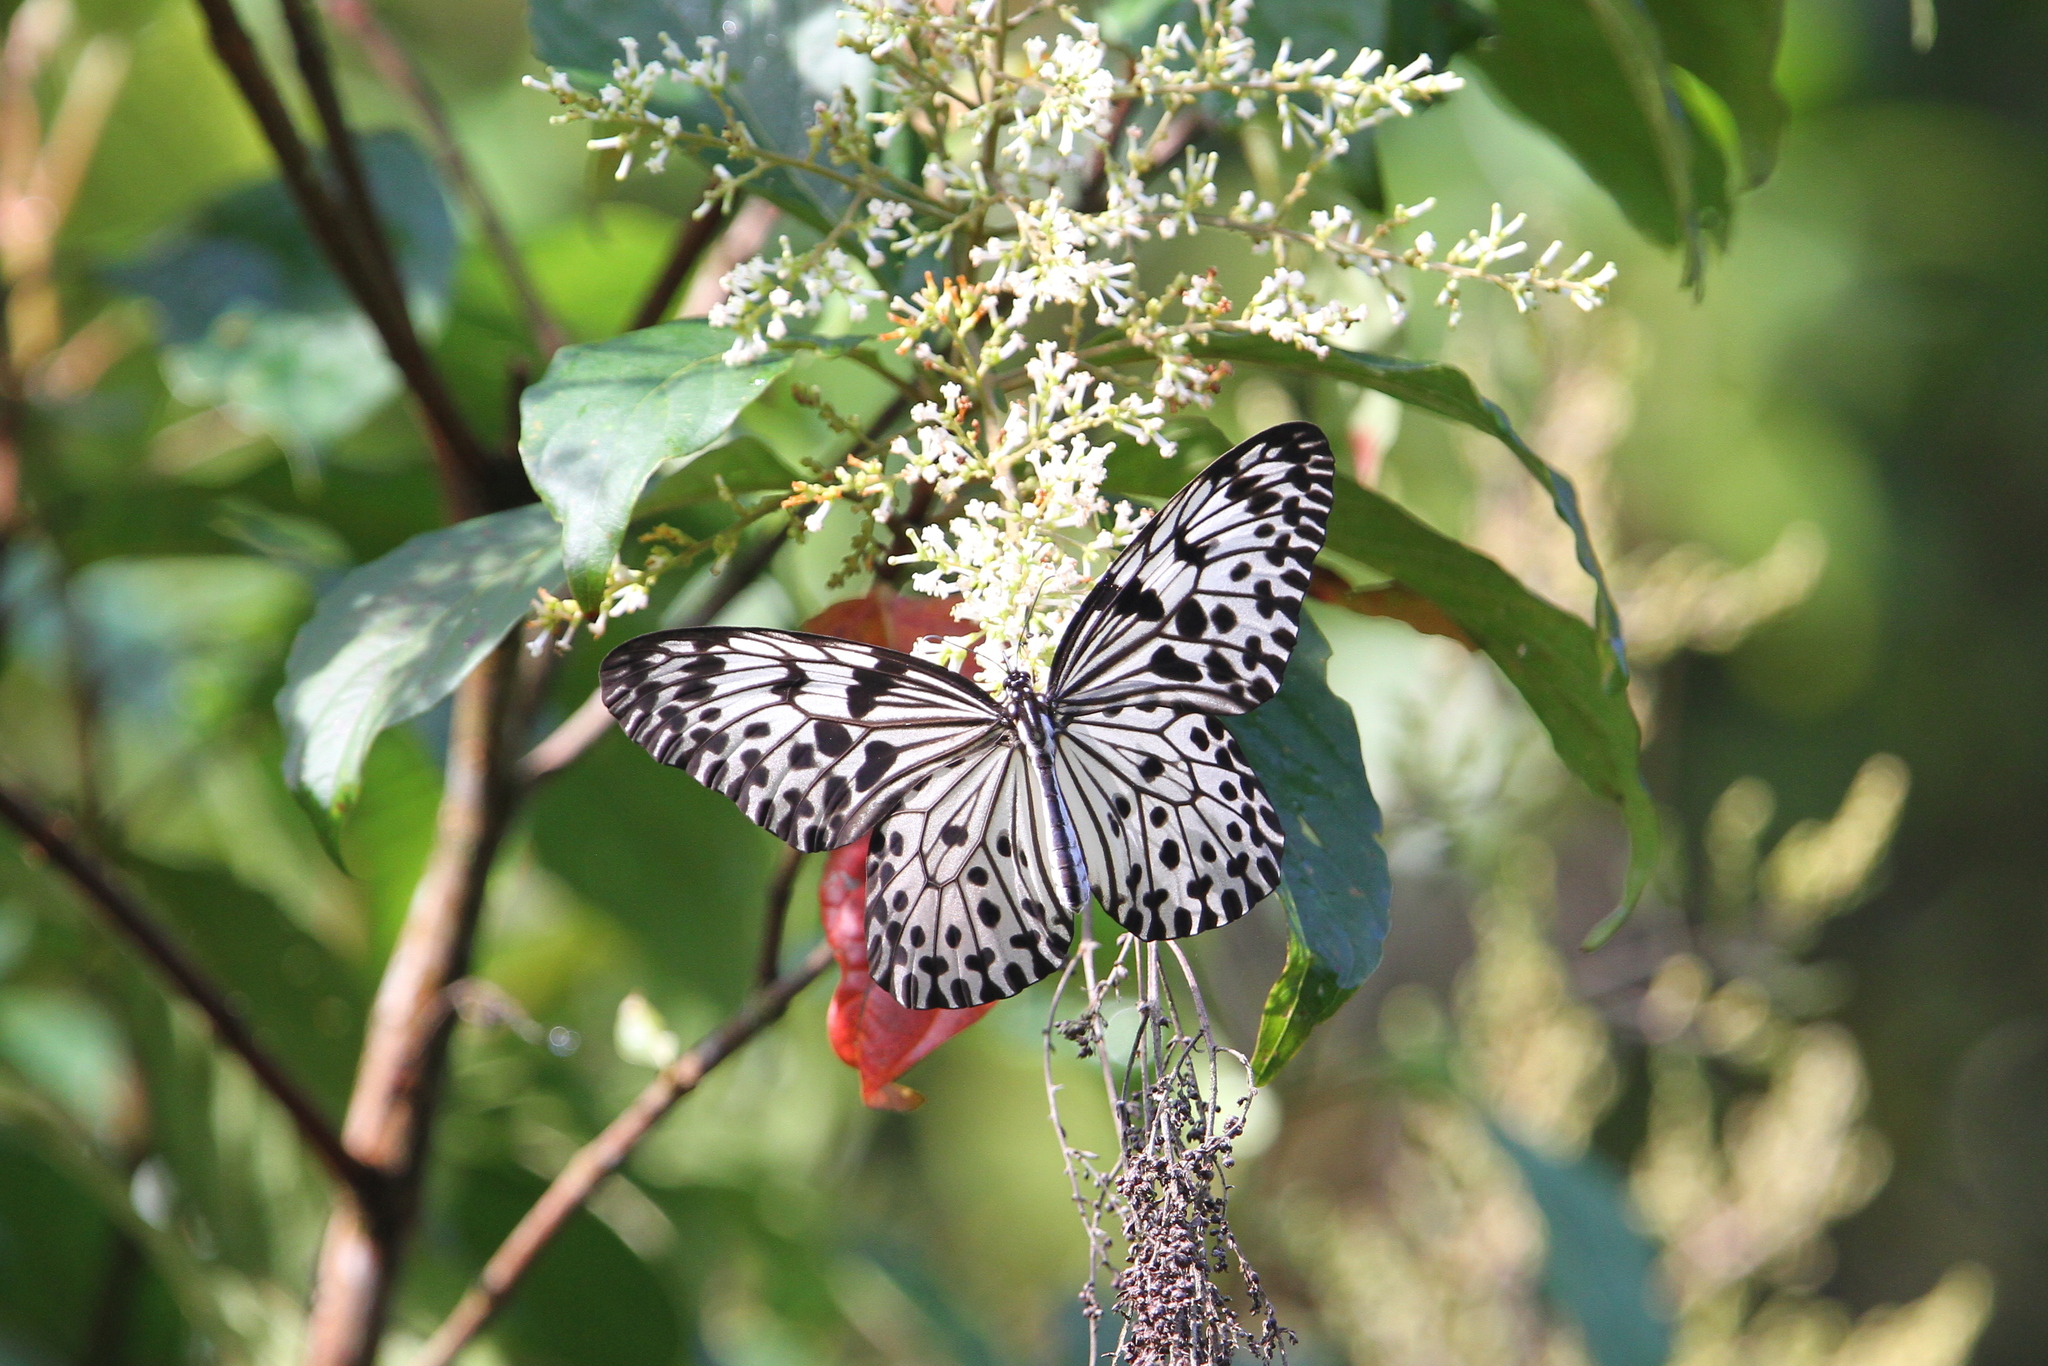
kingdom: Animalia
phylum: Arthropoda
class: Insecta
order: Lepidoptera
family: Nymphalidae
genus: Idea
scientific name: Idea iasonia
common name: Ceylon tree-nymph
